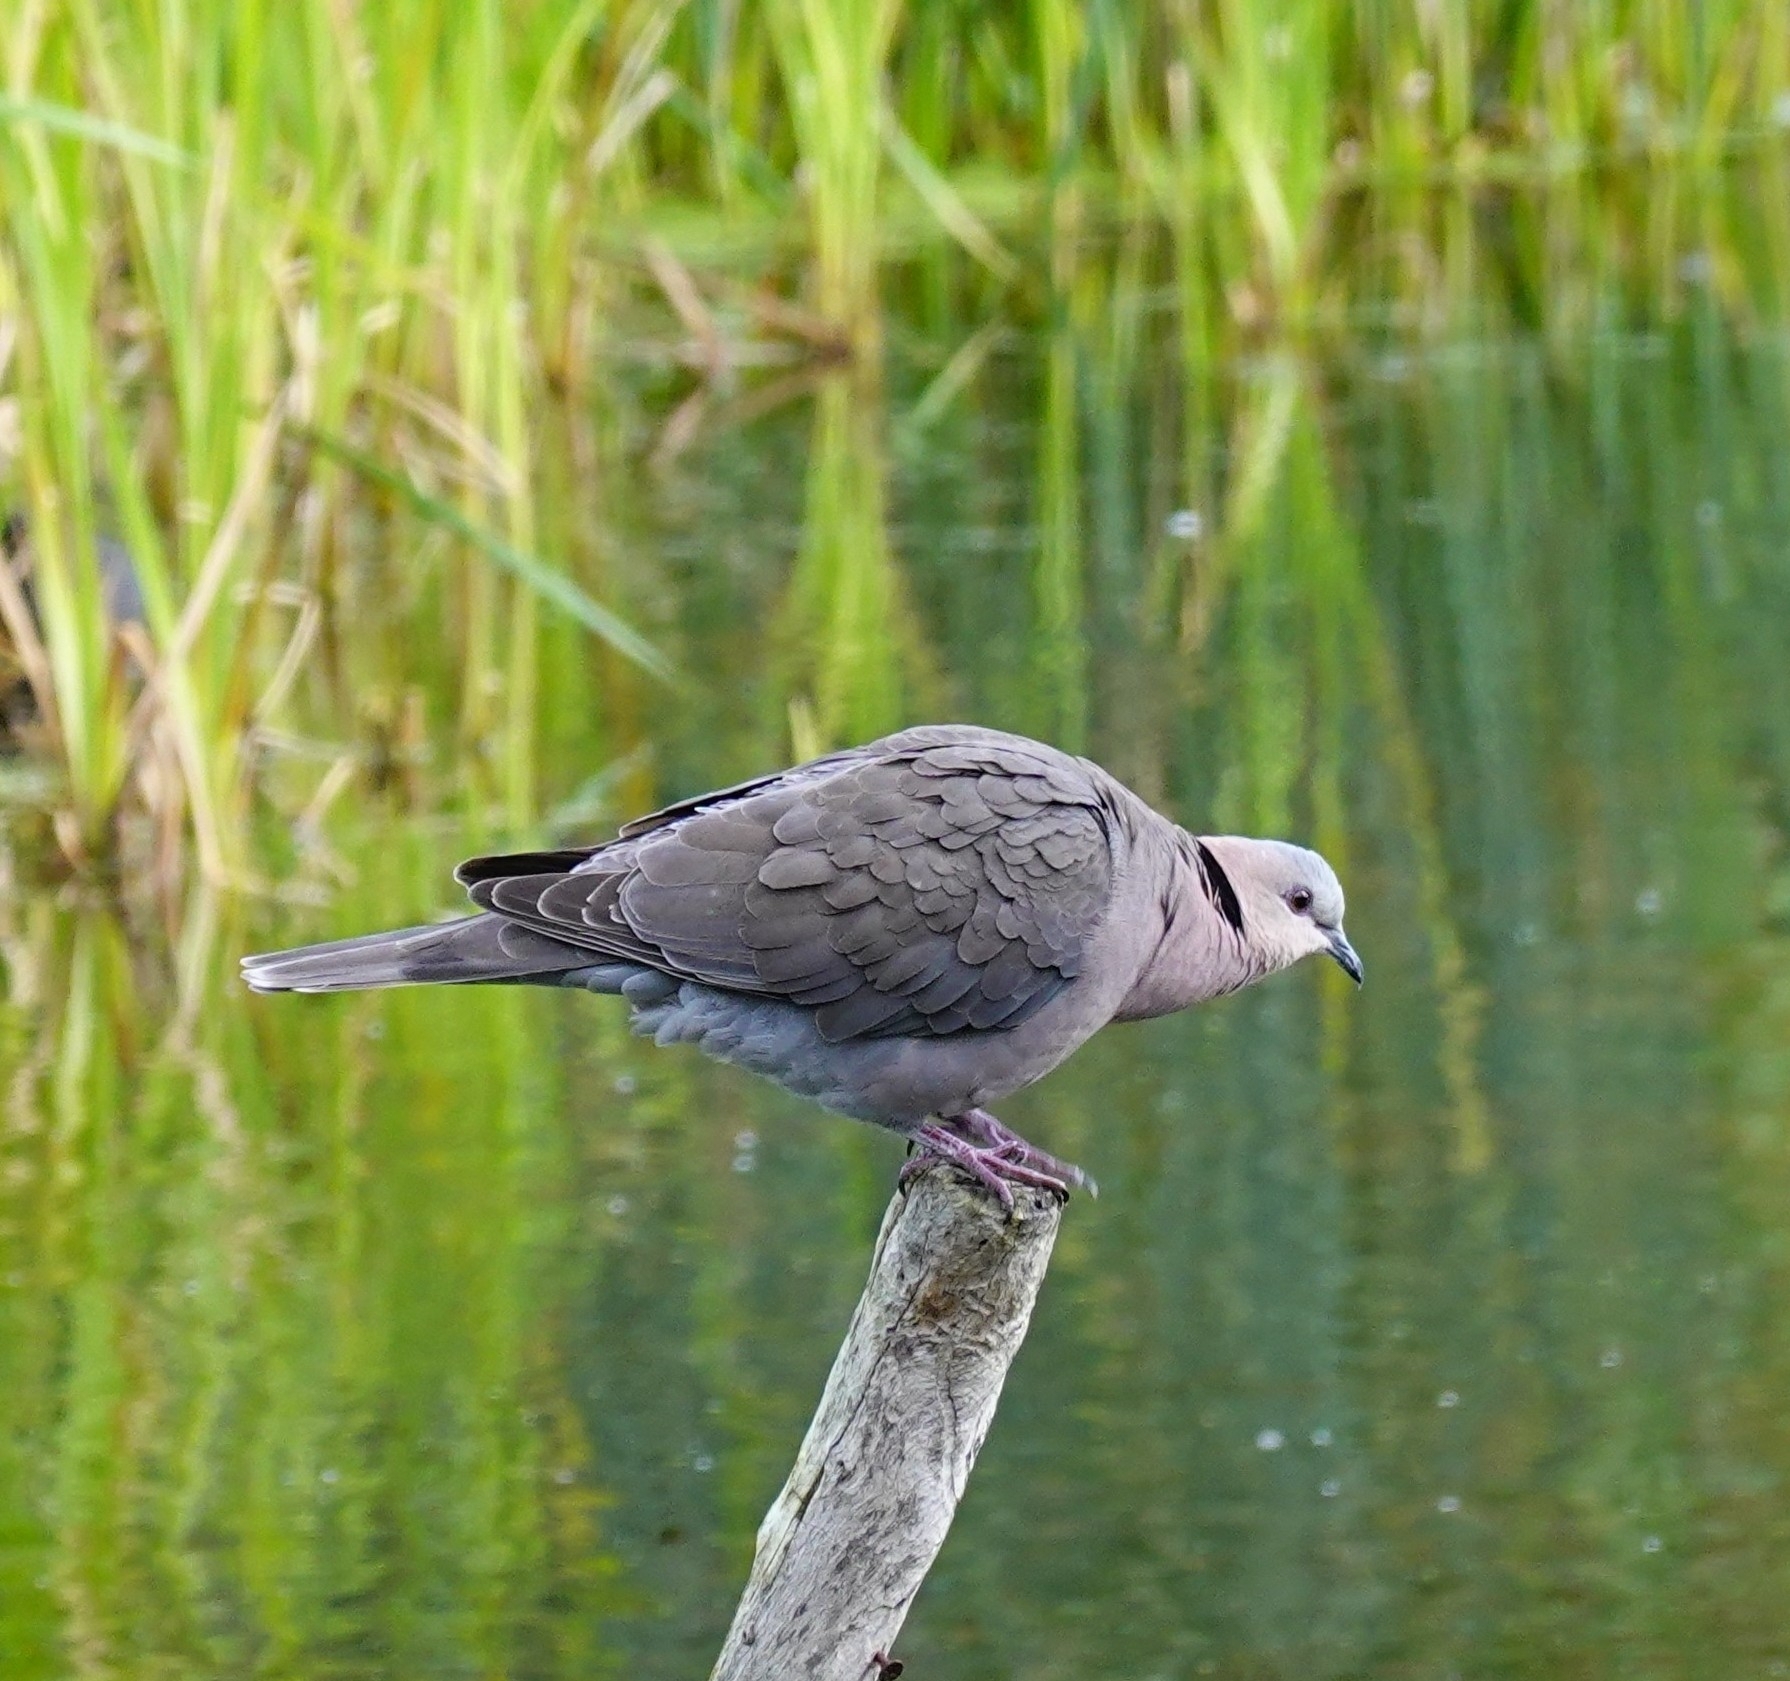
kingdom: Animalia
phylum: Chordata
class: Aves
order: Columbiformes
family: Columbidae
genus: Streptopelia
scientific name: Streptopelia semitorquata
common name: Red-eyed dove
